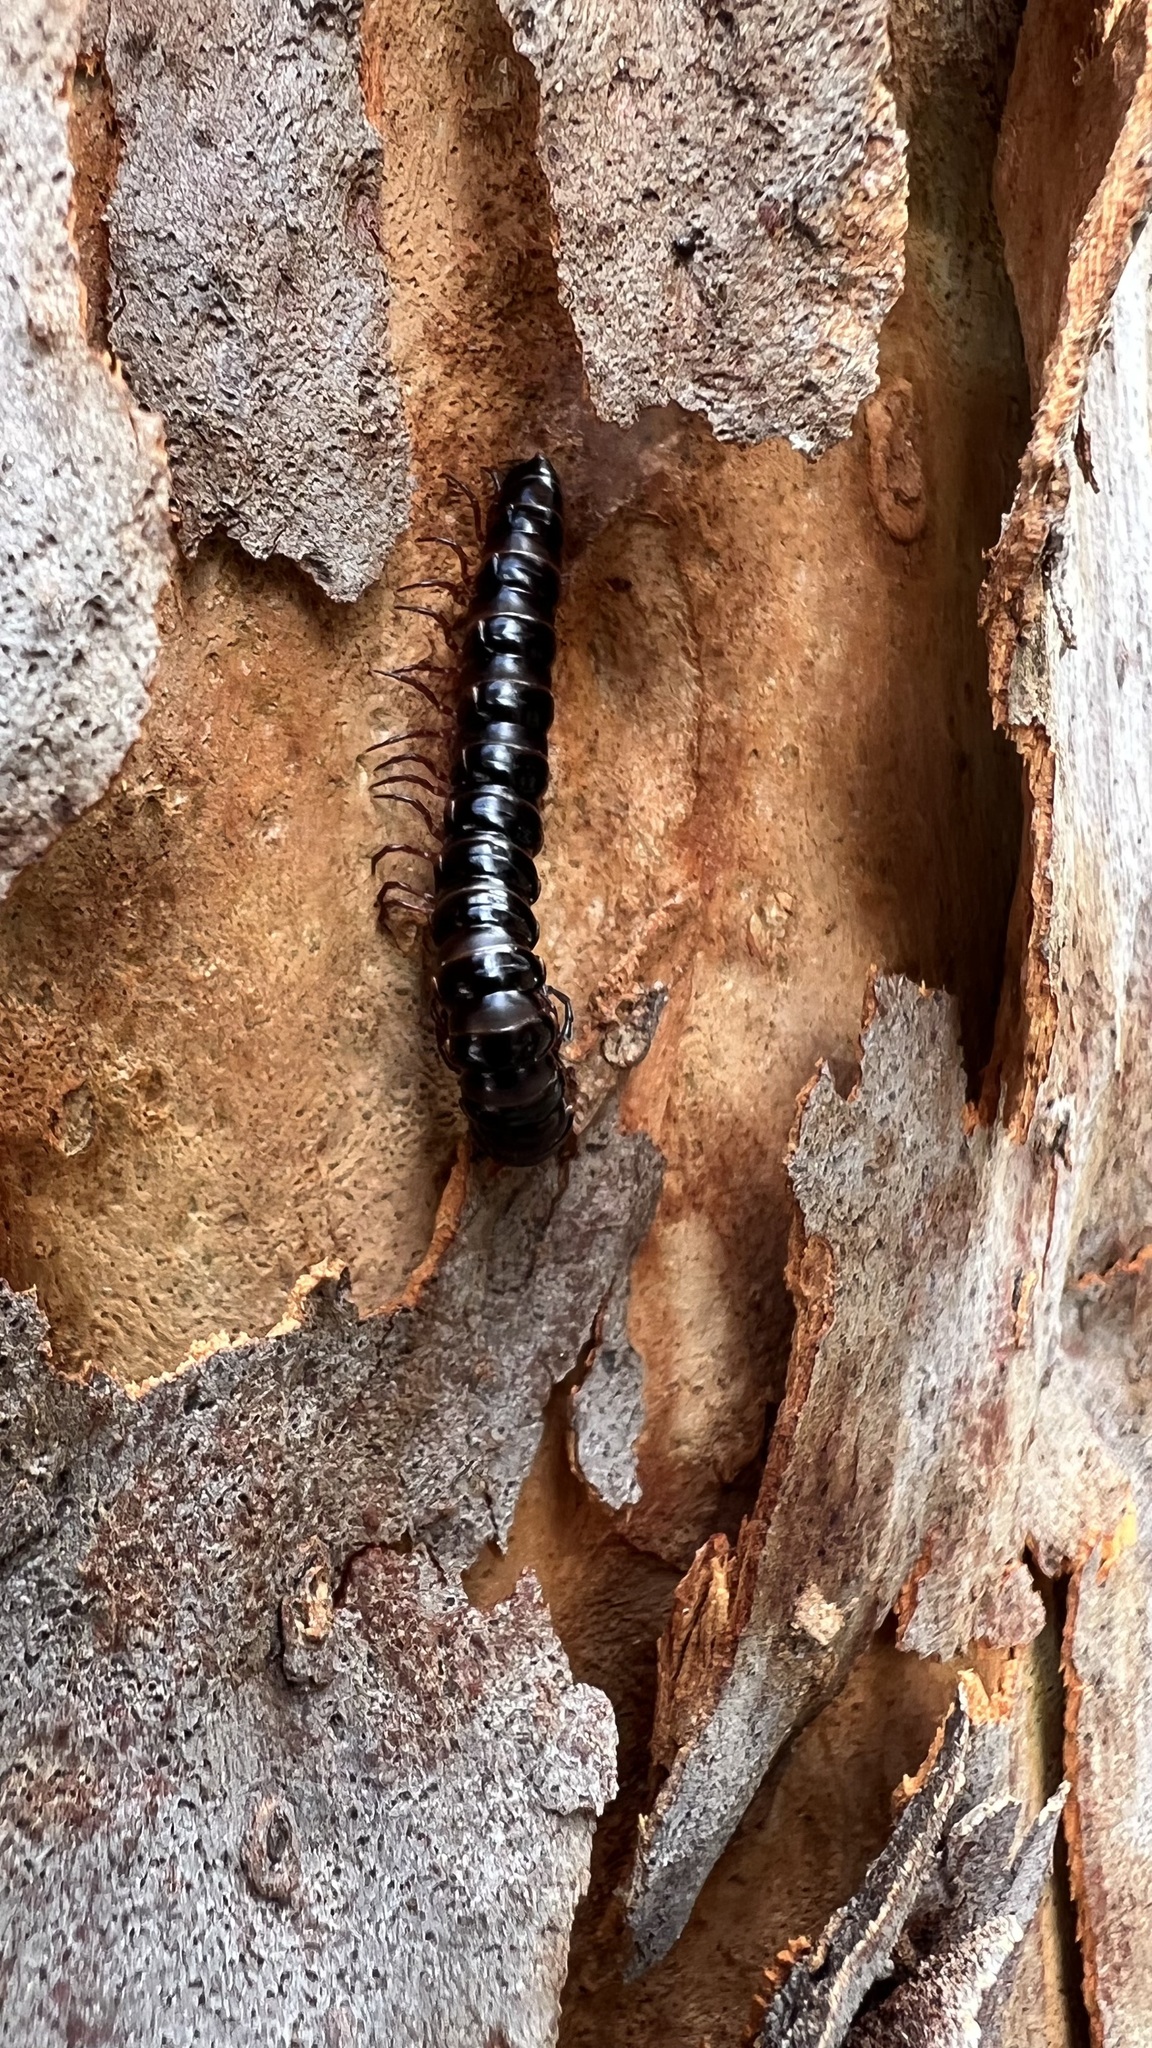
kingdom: Animalia
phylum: Arthropoda
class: Diplopoda
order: Polydesmida
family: Paradoxosomatidae
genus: Heterocladosoma
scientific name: Heterocladosoma
